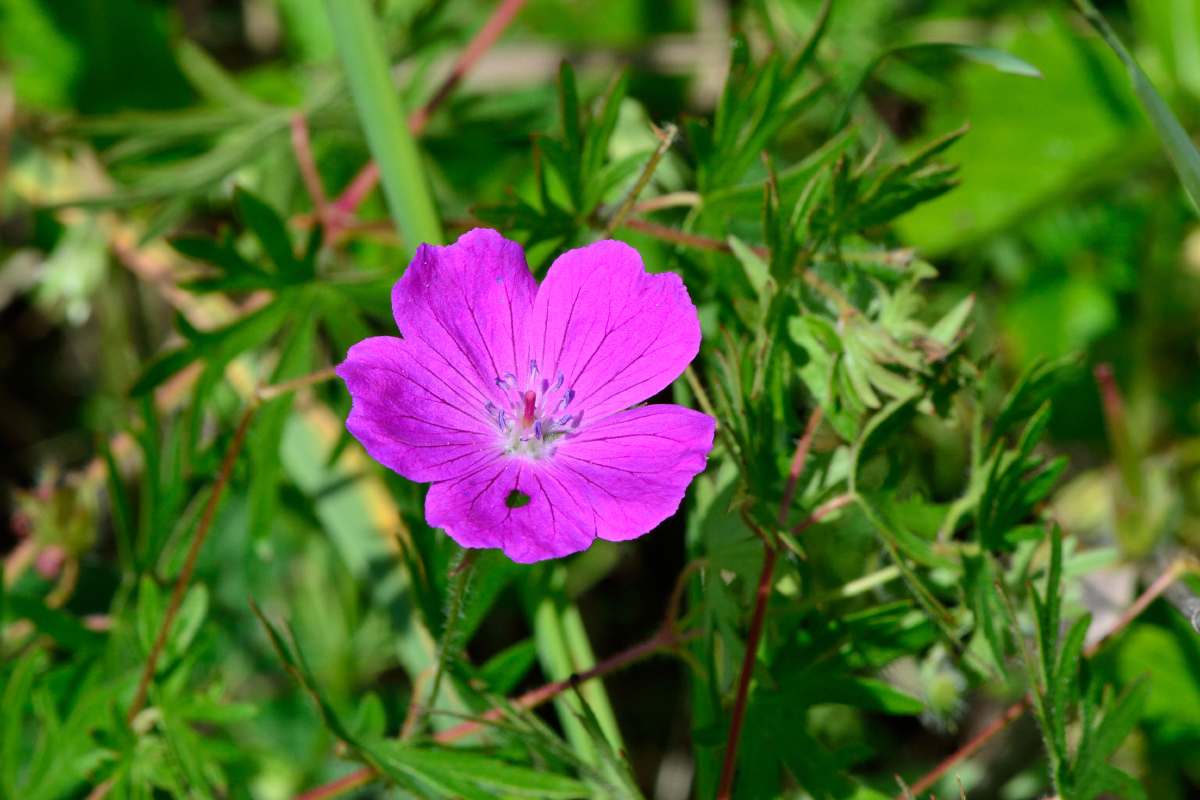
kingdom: Plantae
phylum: Tracheophyta
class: Magnoliopsida
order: Geraniales
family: Geraniaceae
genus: Geranium
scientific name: Geranium sanguineum
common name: Bloody crane's-bill
